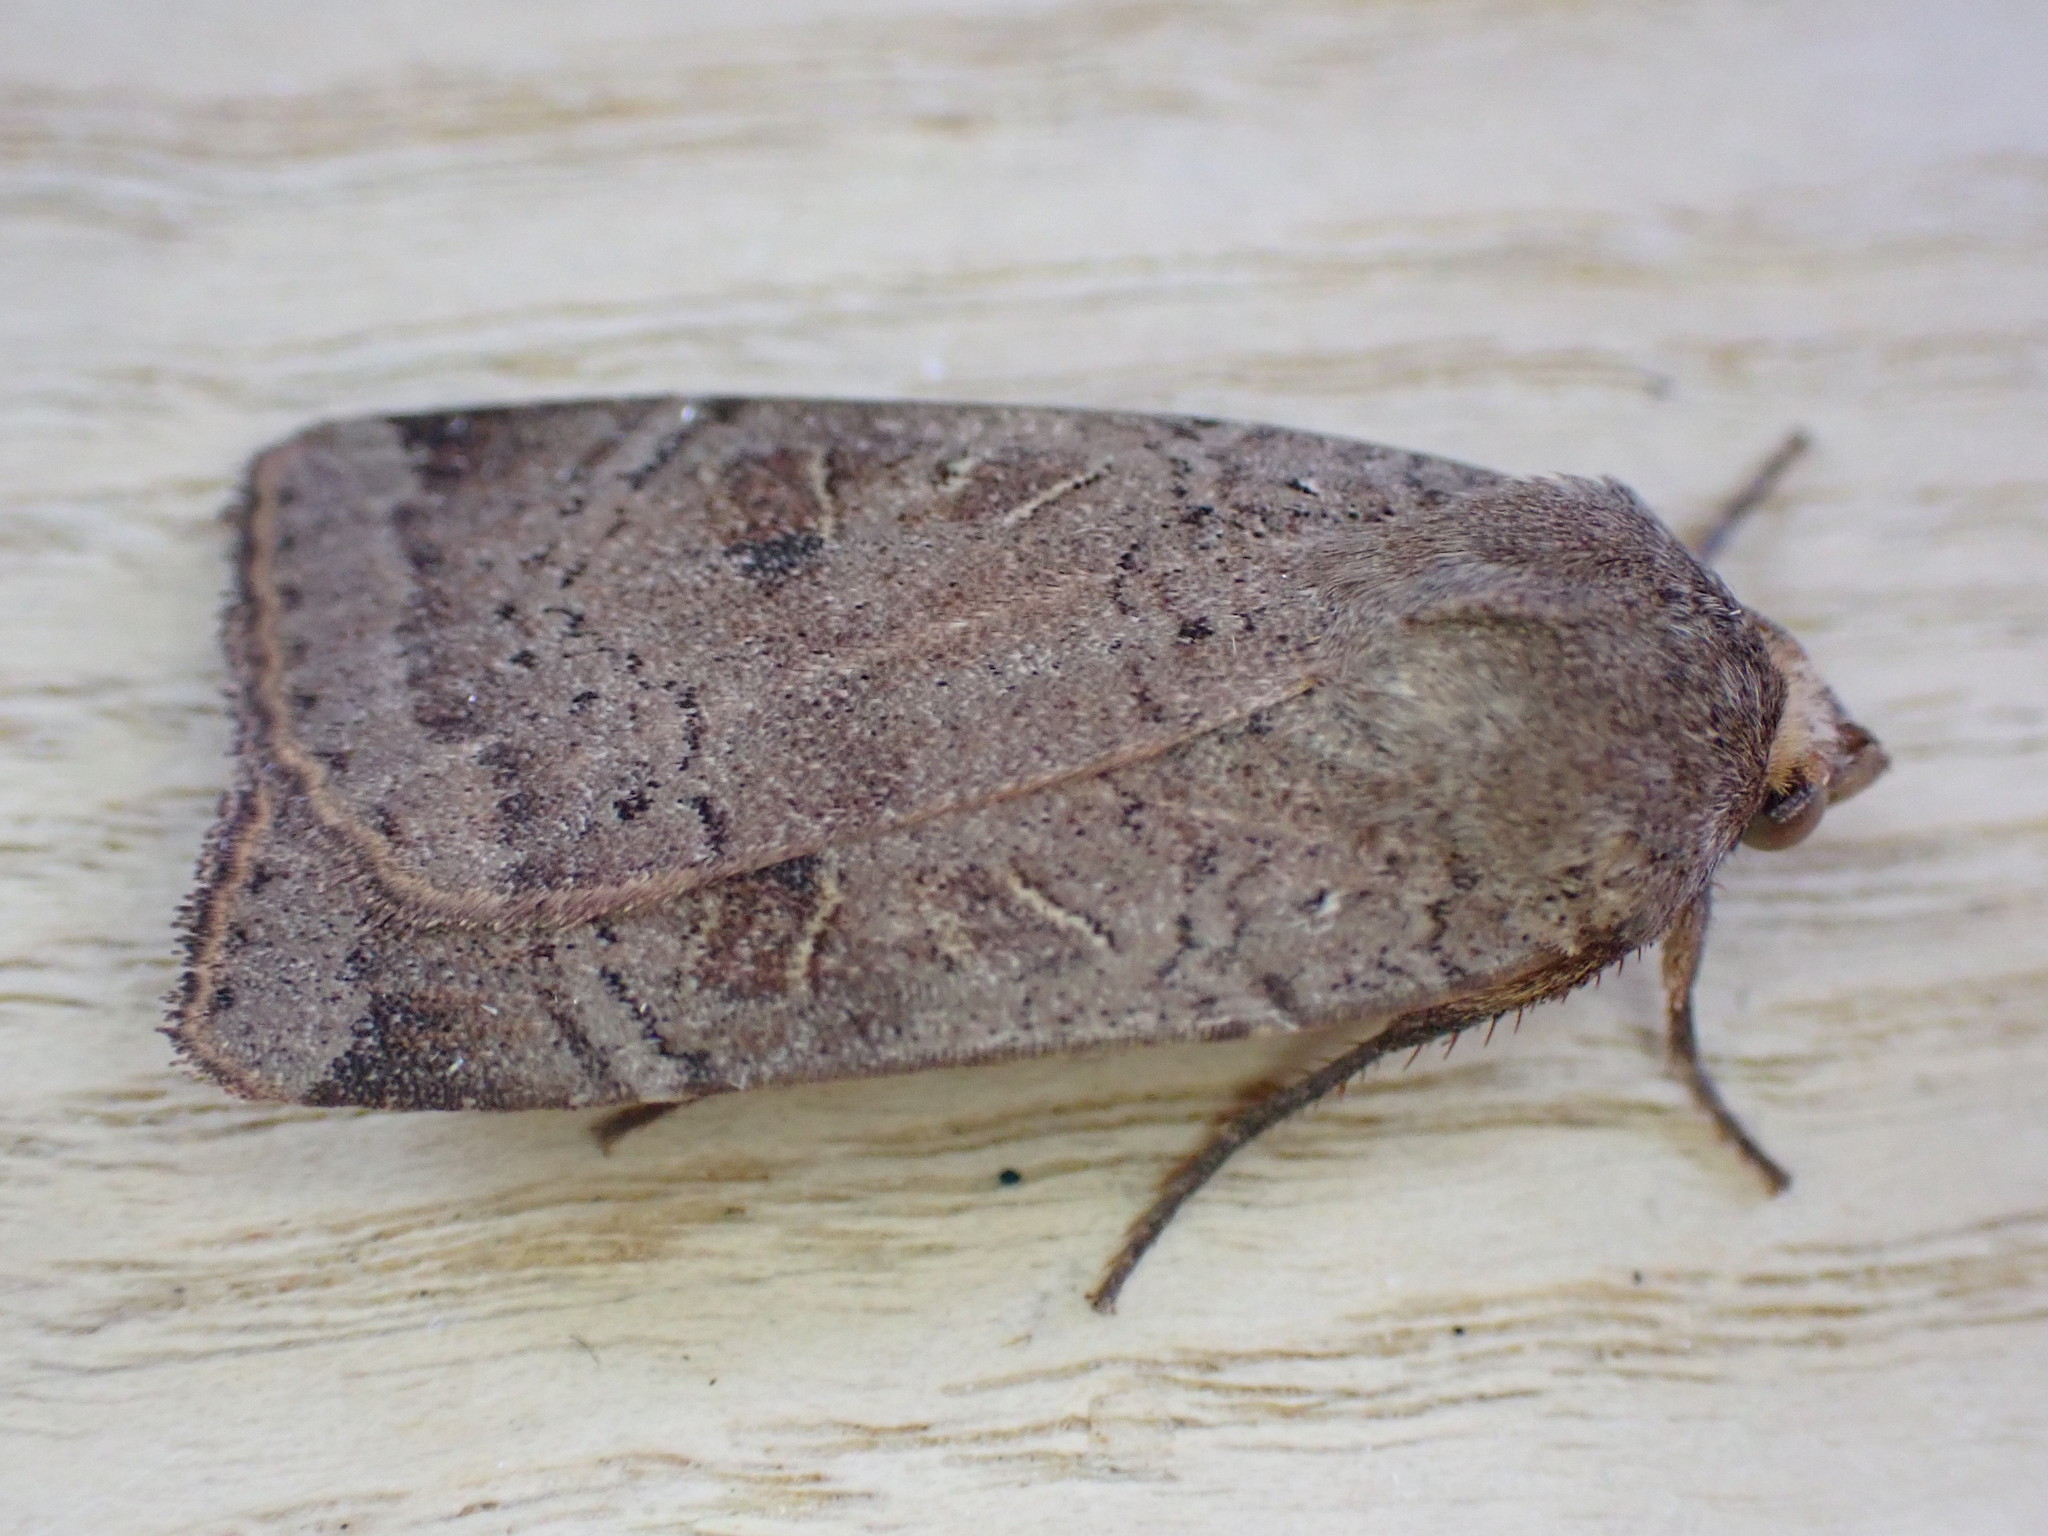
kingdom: Animalia
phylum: Arthropoda
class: Insecta
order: Lepidoptera
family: Noctuidae
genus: Noctua
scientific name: Noctua comes
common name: Lesser yellow underwing
